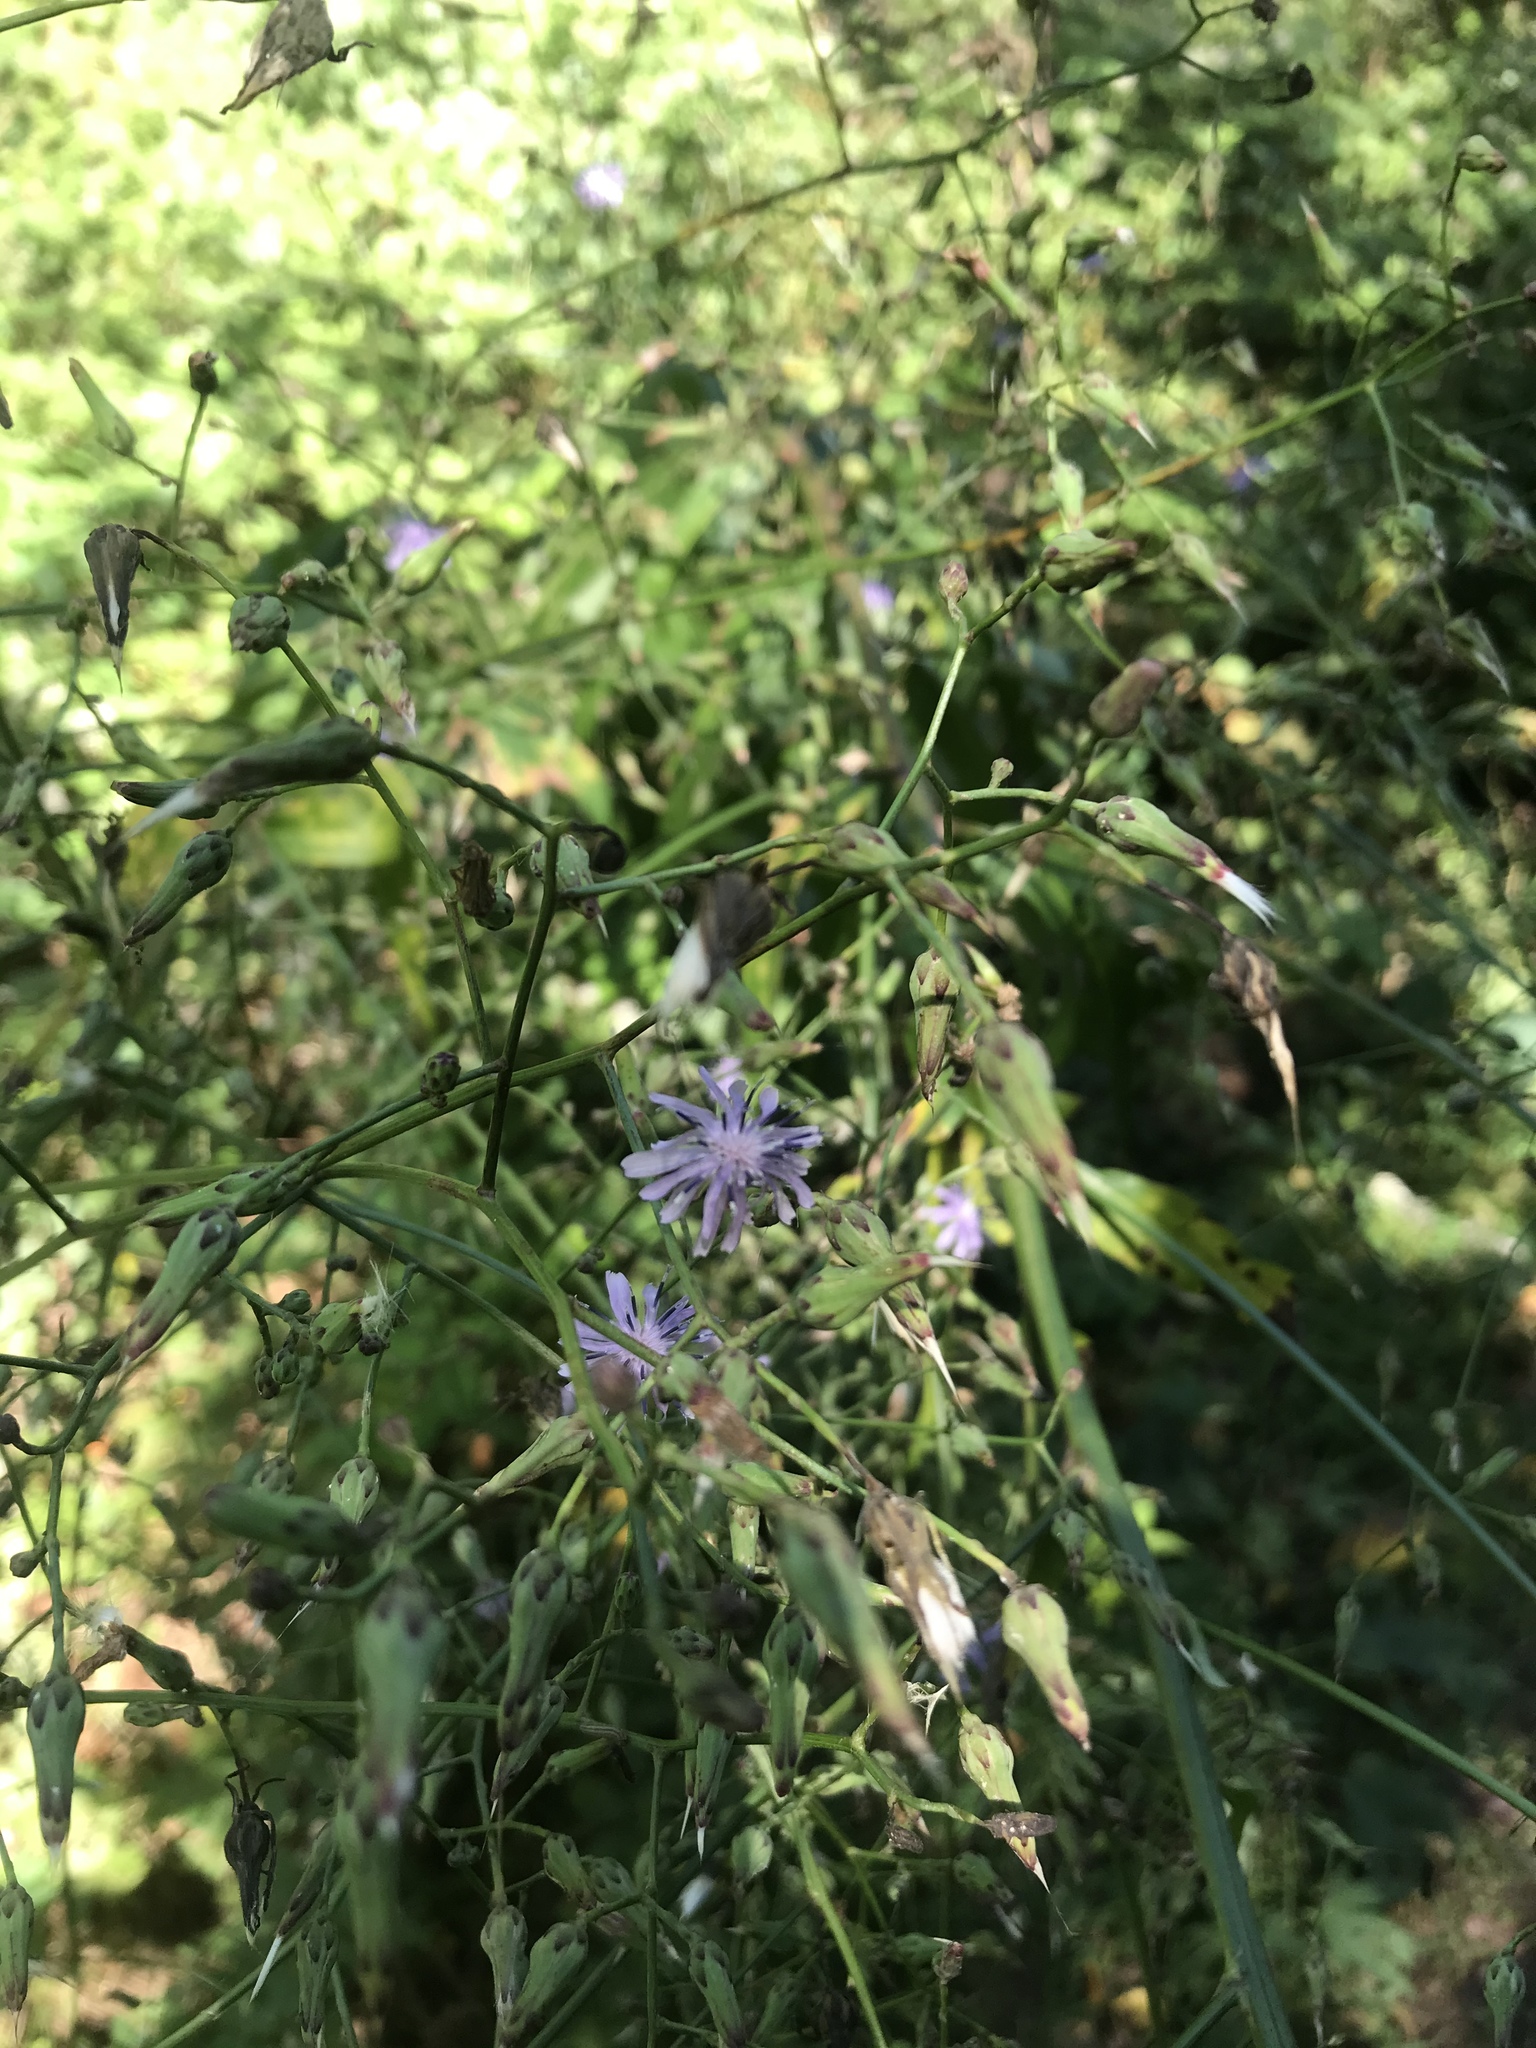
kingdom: Plantae
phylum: Tracheophyta
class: Magnoliopsida
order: Asterales
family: Asteraceae
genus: Lactuca
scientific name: Lactuca floridana
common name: Woodland lettuce
